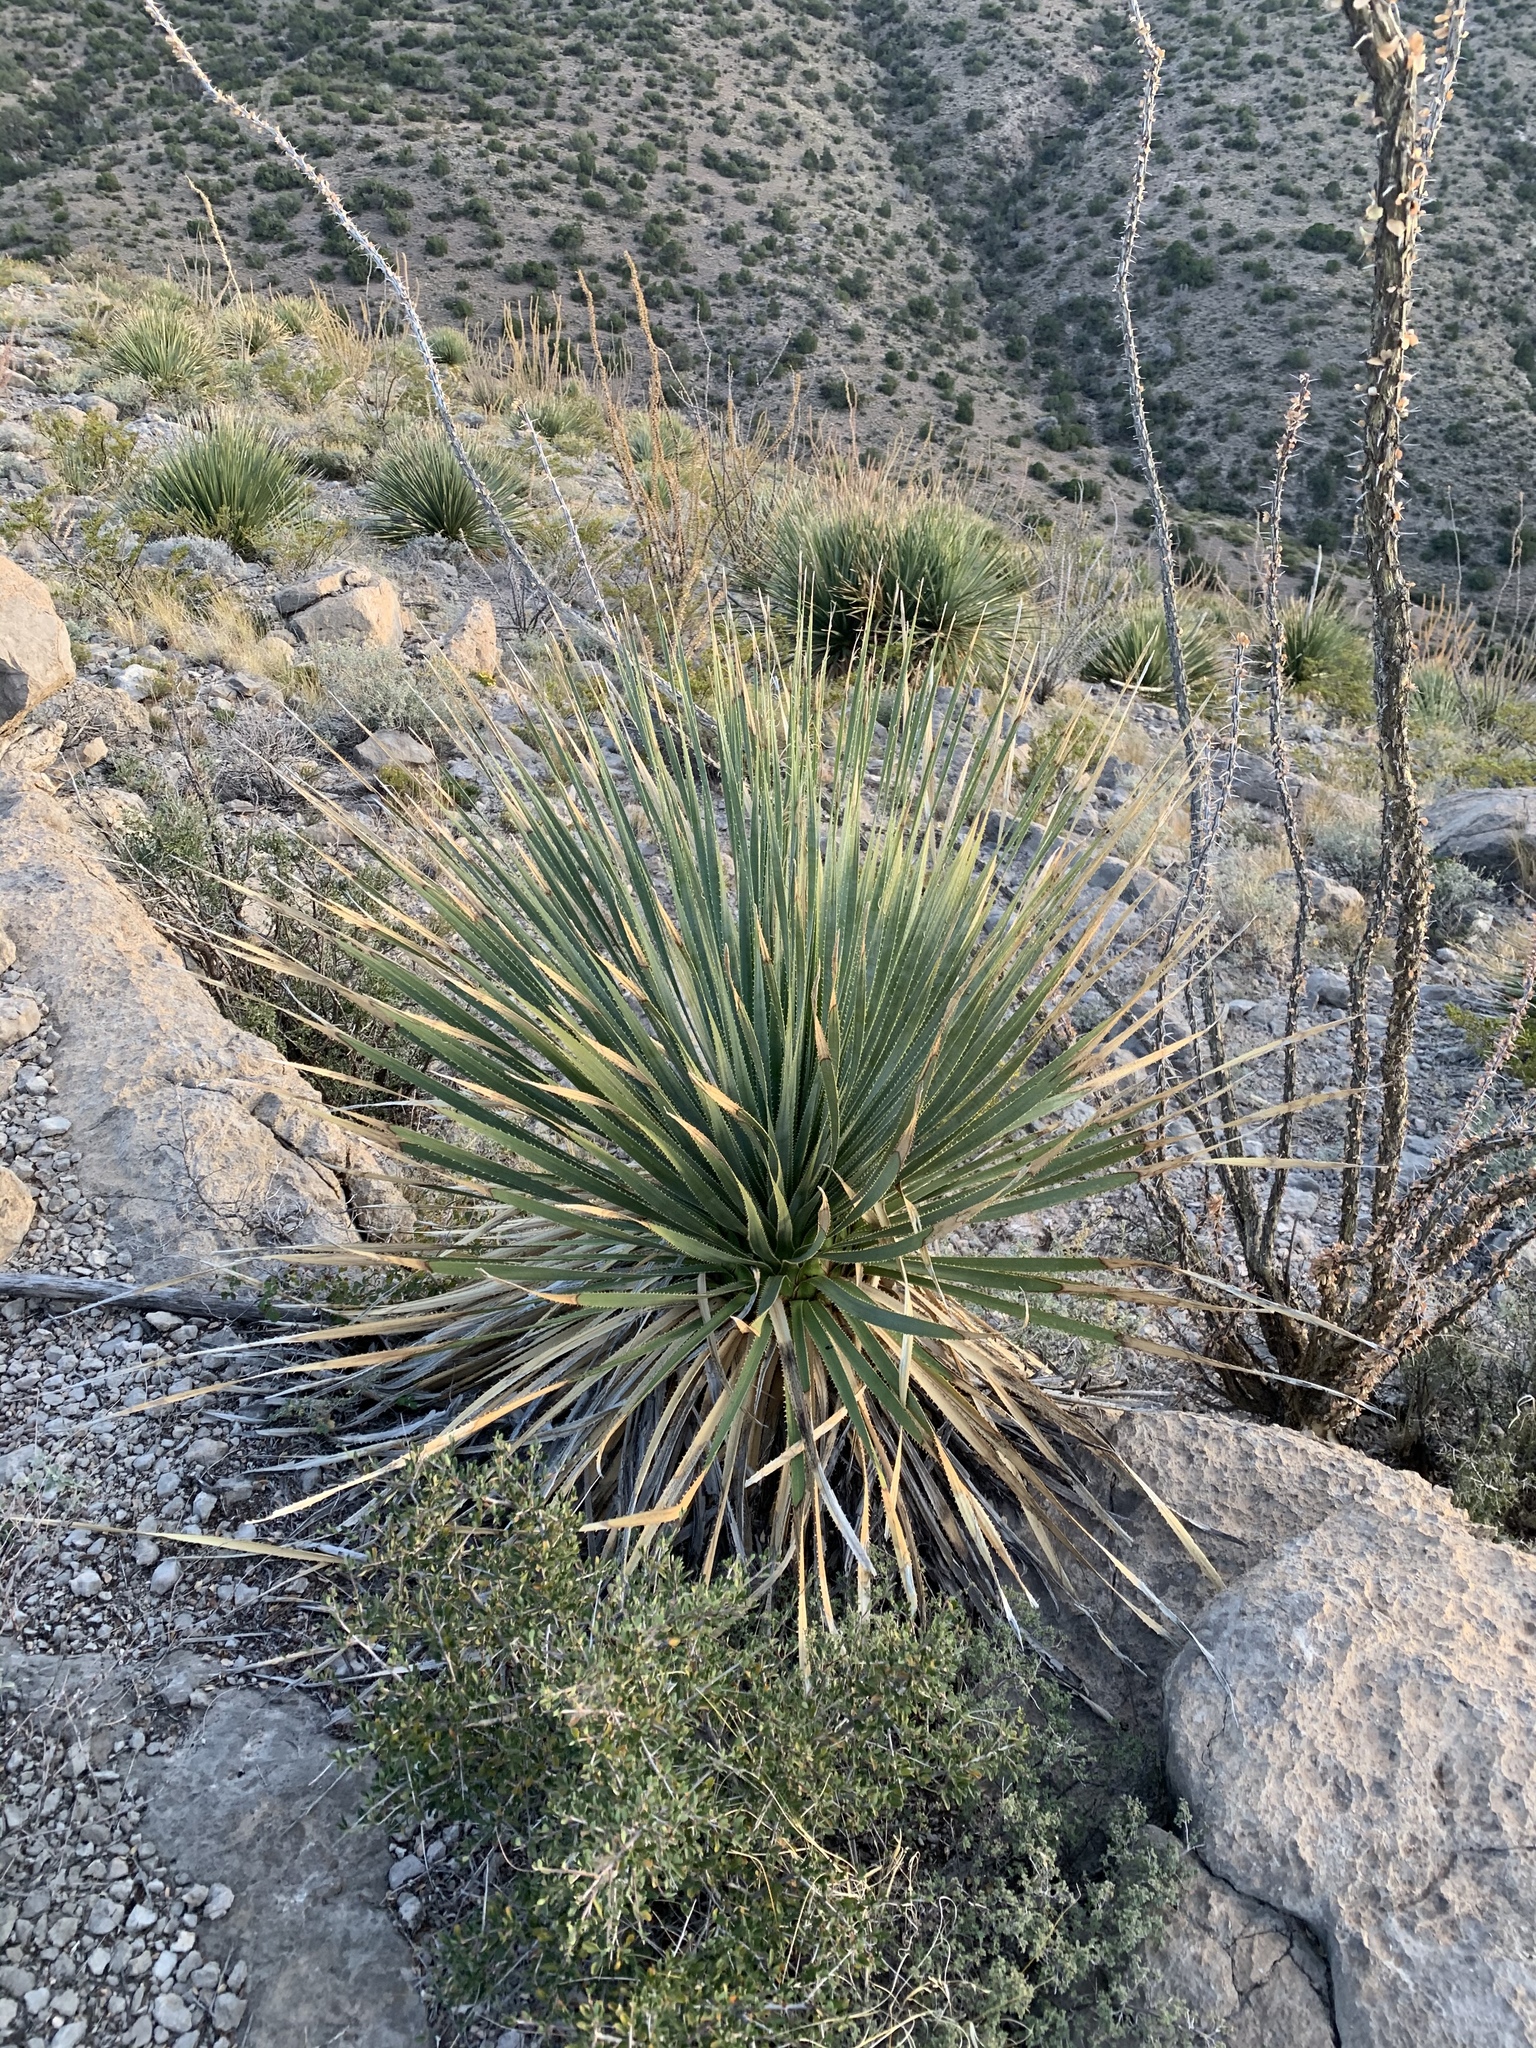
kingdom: Plantae
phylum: Tracheophyta
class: Liliopsida
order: Asparagales
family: Asparagaceae
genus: Dasylirion
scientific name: Dasylirion wheeleri
